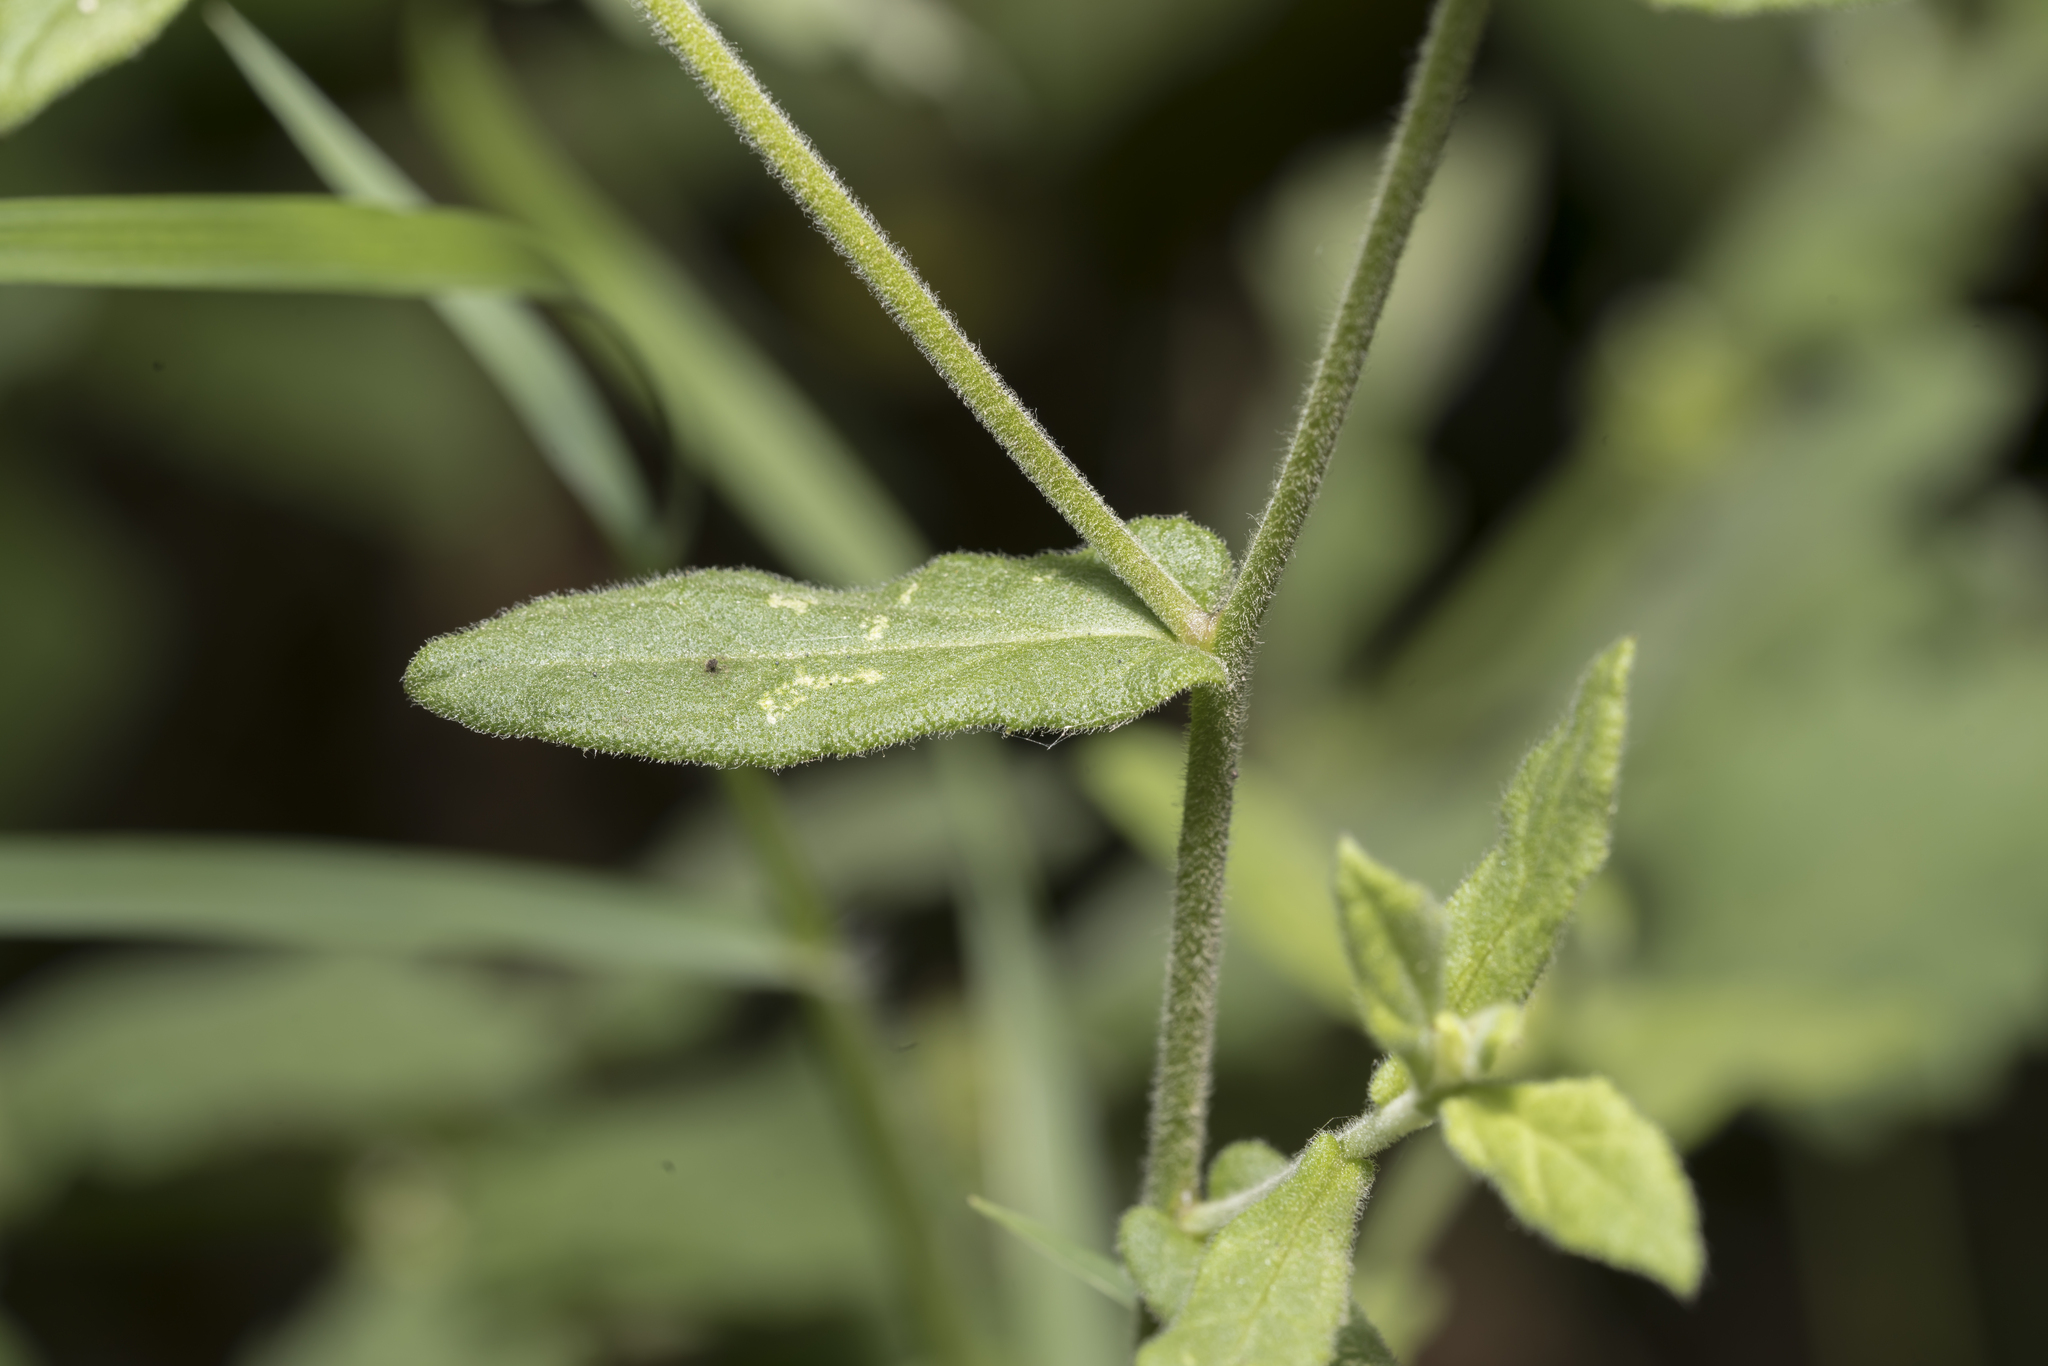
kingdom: Plantae
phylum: Tracheophyta
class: Magnoliopsida
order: Asterales
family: Asteraceae
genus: Pulicaria
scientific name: Pulicaria dysenterica
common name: Common fleabane
